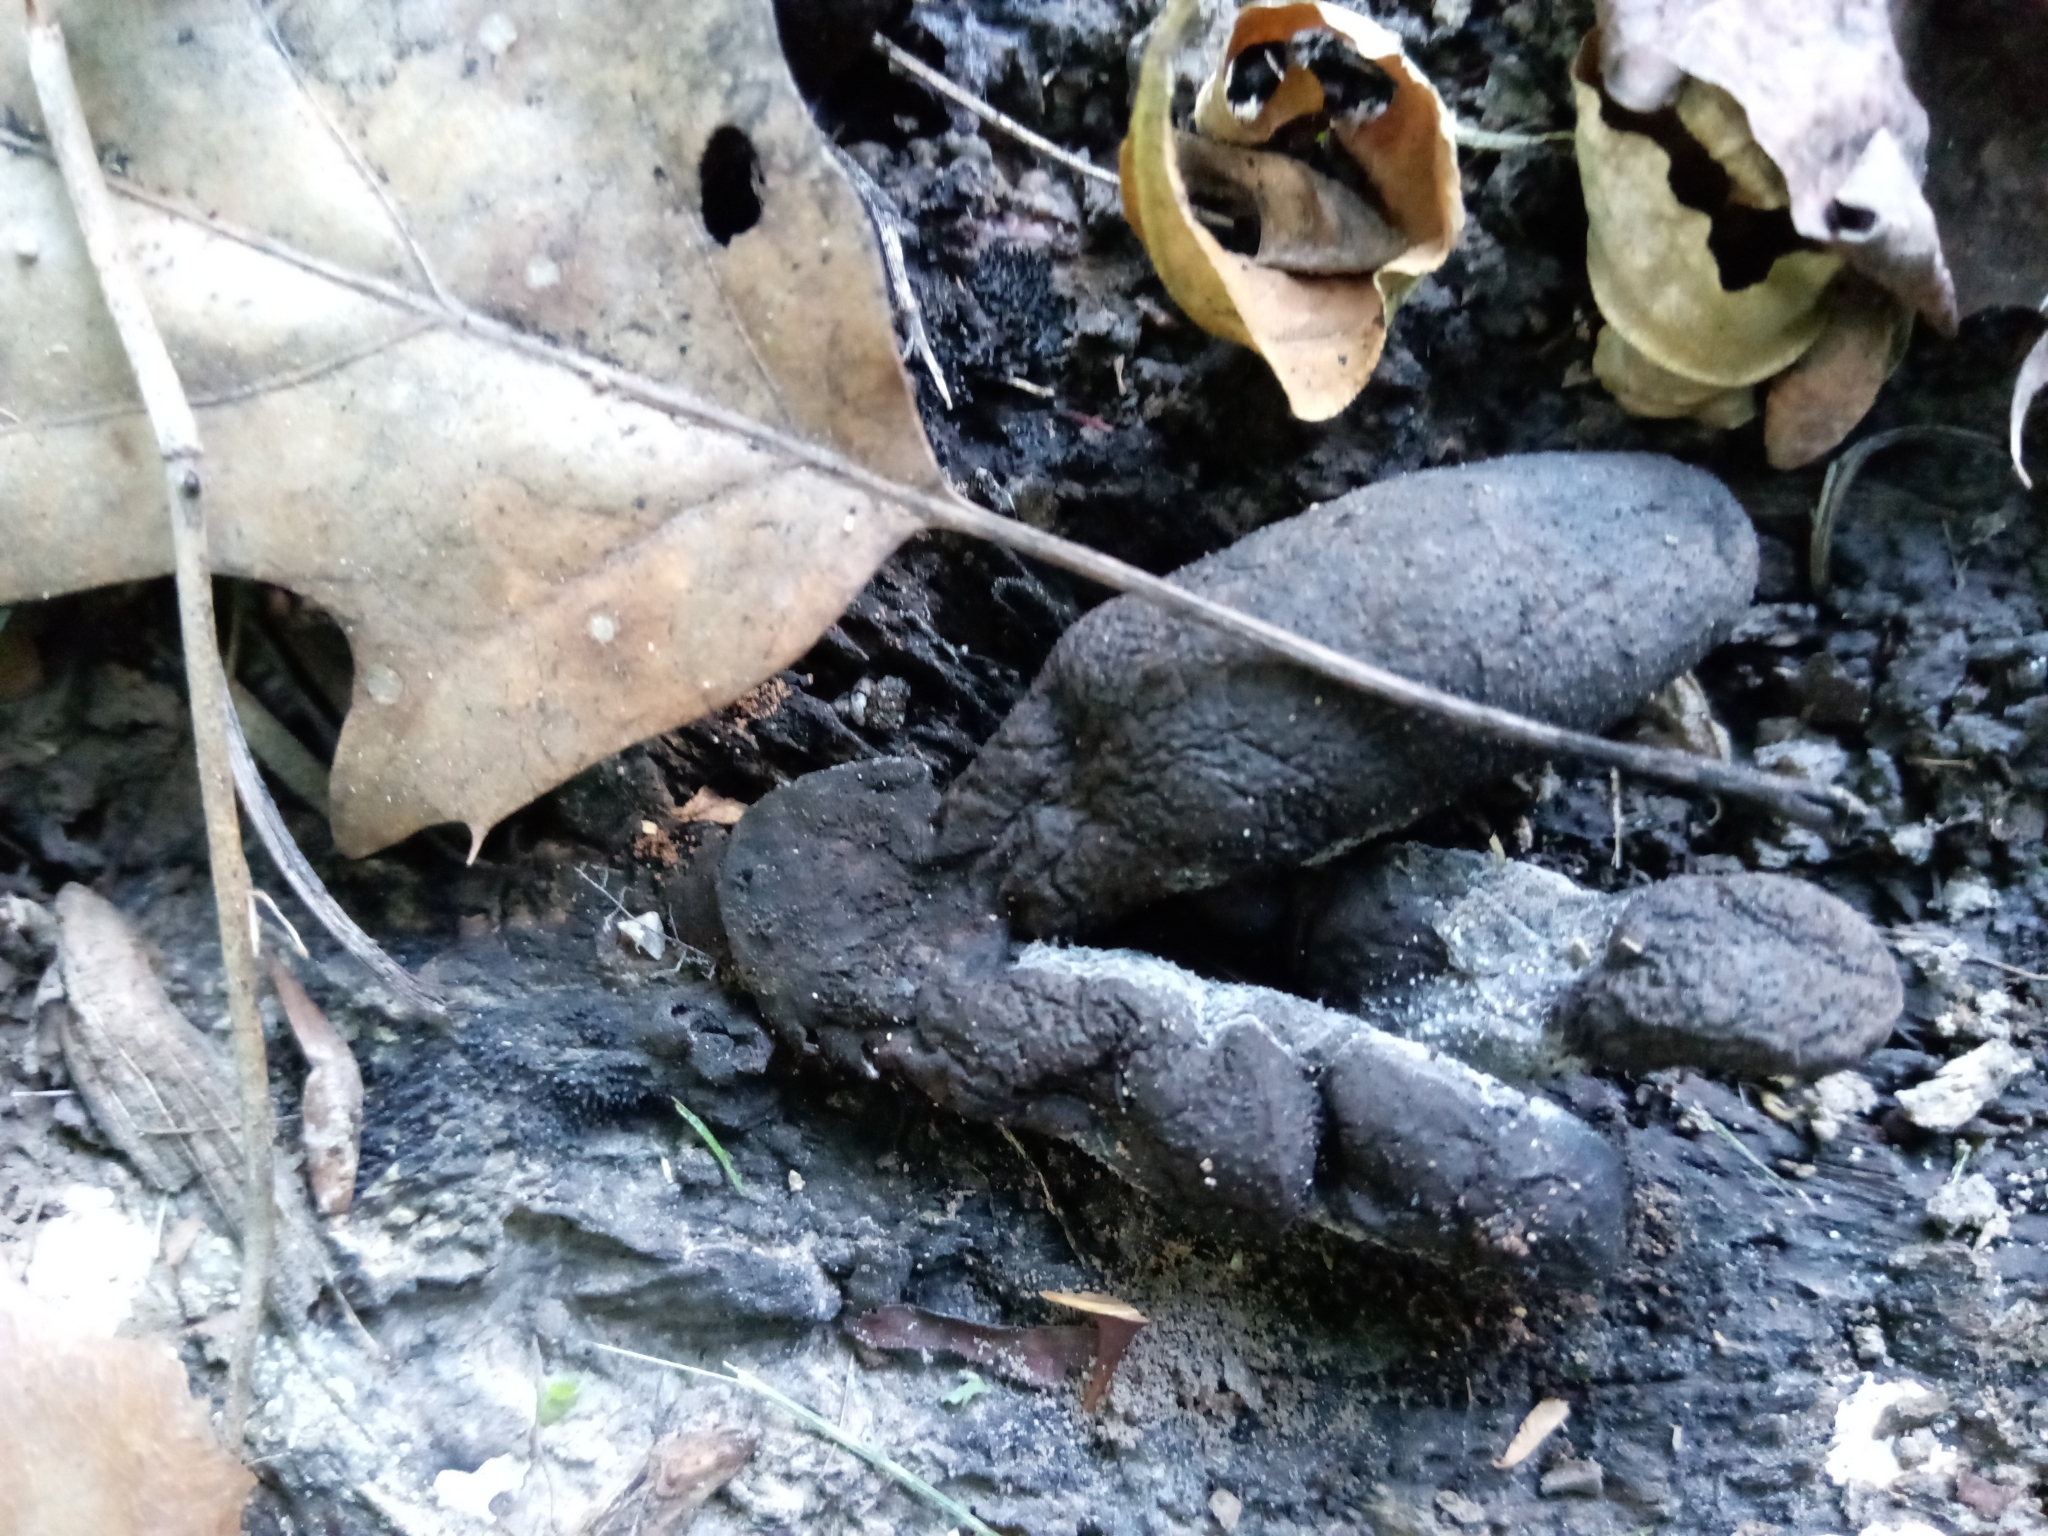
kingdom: Fungi
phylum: Ascomycota
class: Sordariomycetes
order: Xylariales
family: Xylariaceae
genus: Xylaria
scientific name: Xylaria polymorpha
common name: Dead man's fingers
